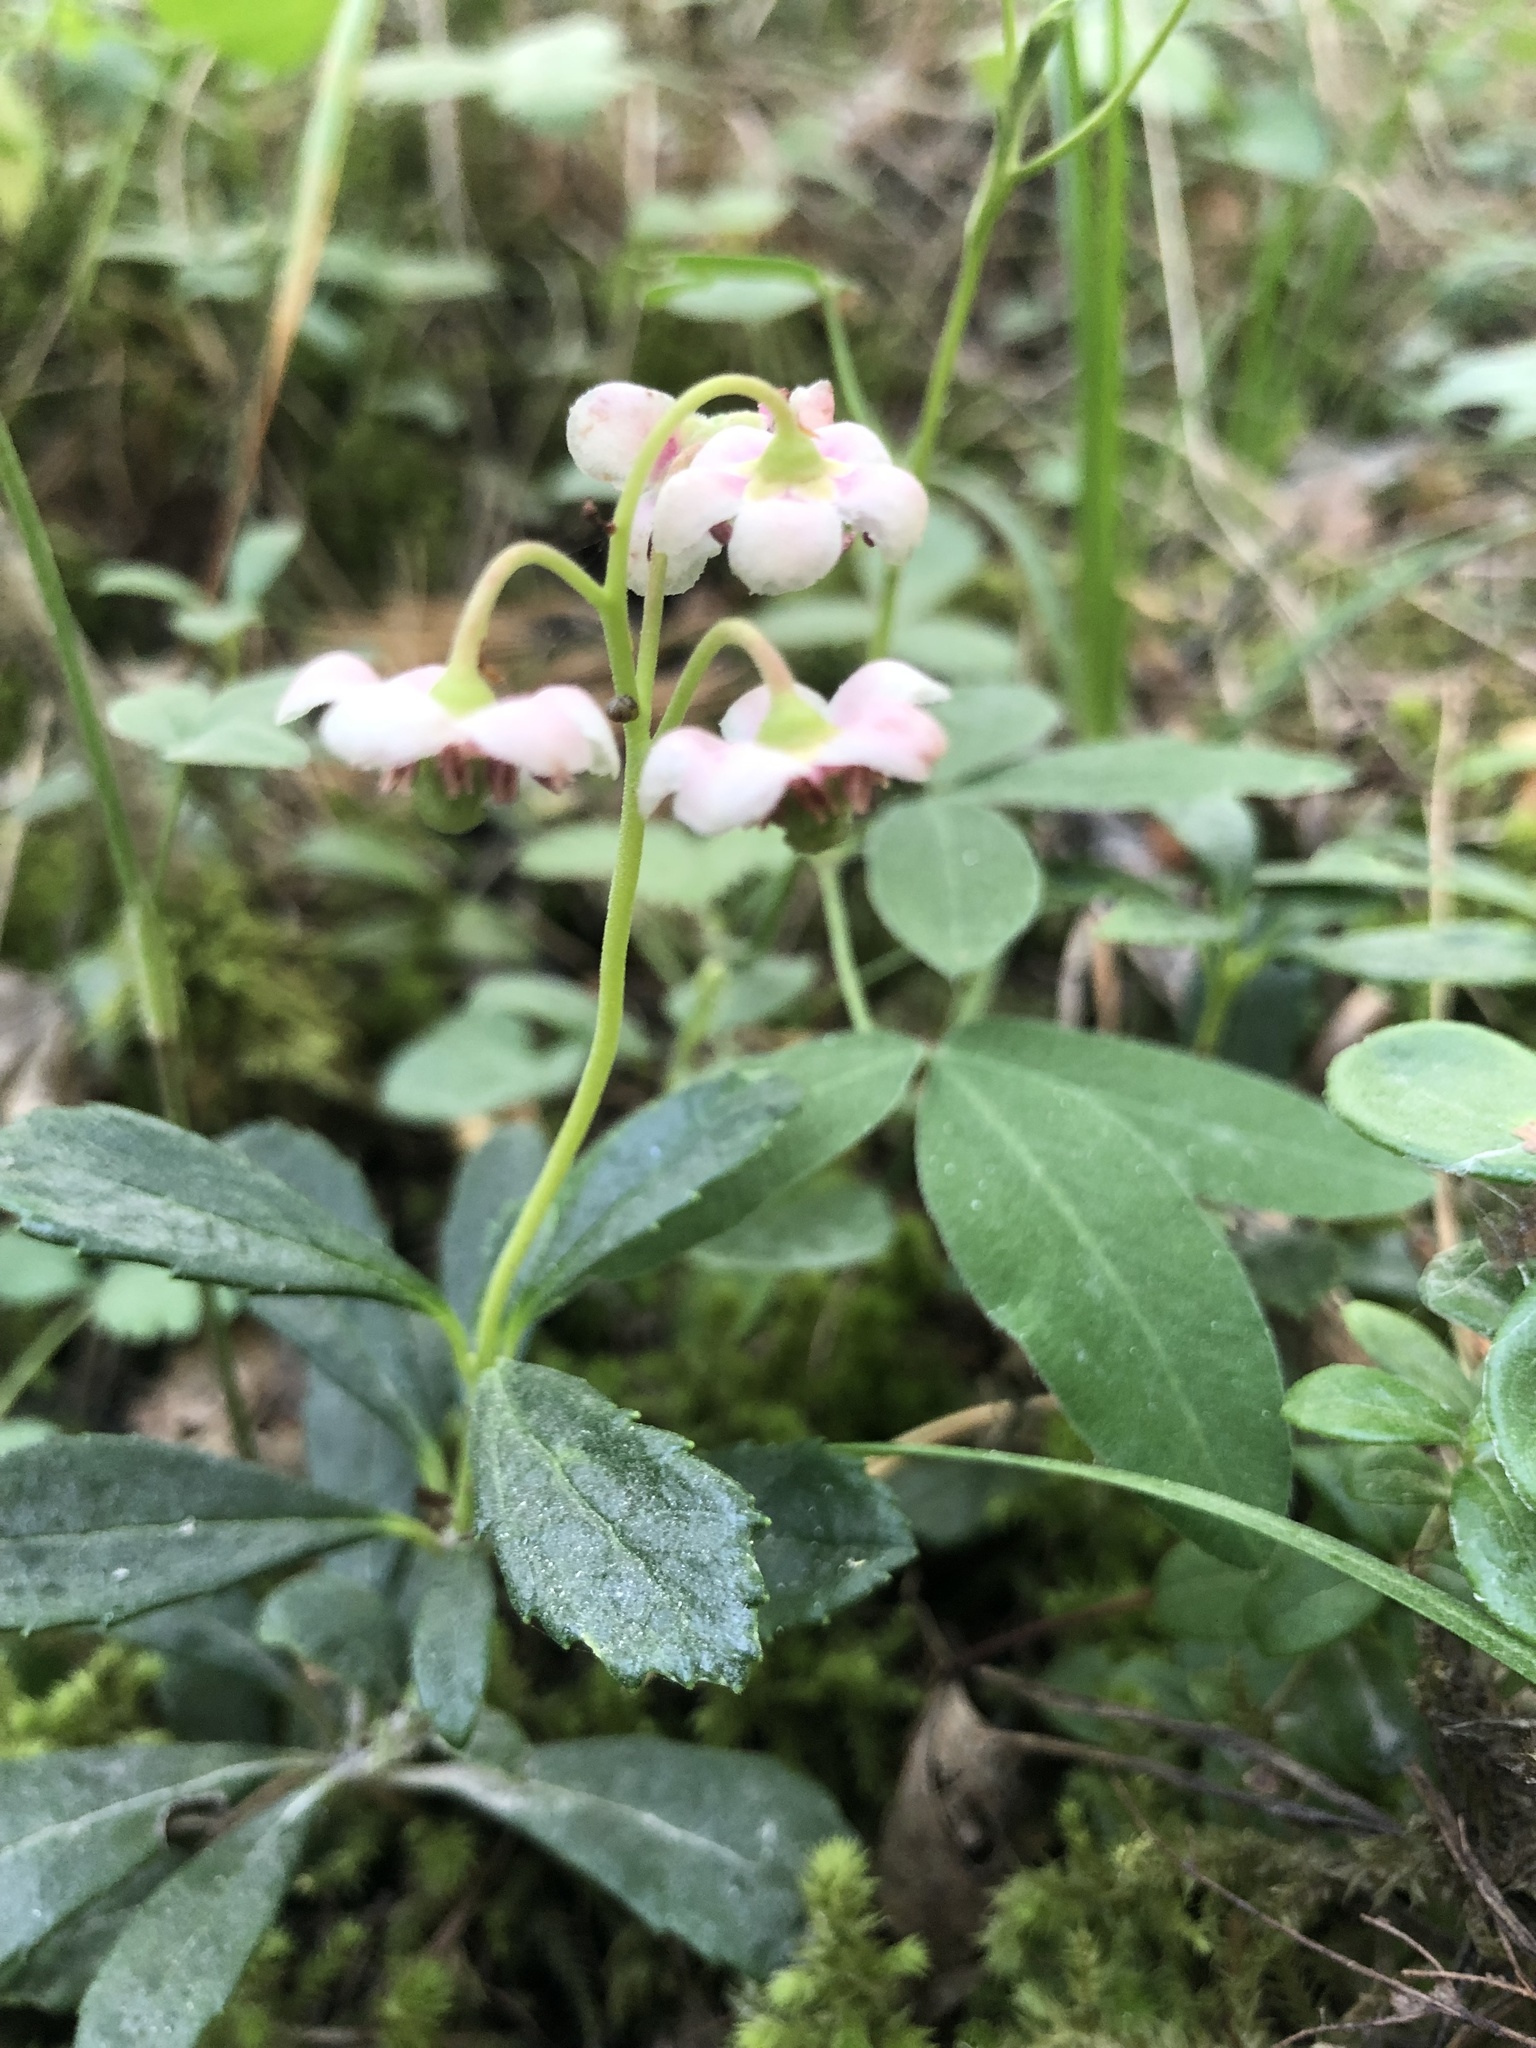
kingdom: Plantae
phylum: Tracheophyta
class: Magnoliopsida
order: Ericales
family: Ericaceae
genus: Chimaphila
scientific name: Chimaphila umbellata
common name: Pipsissewa
